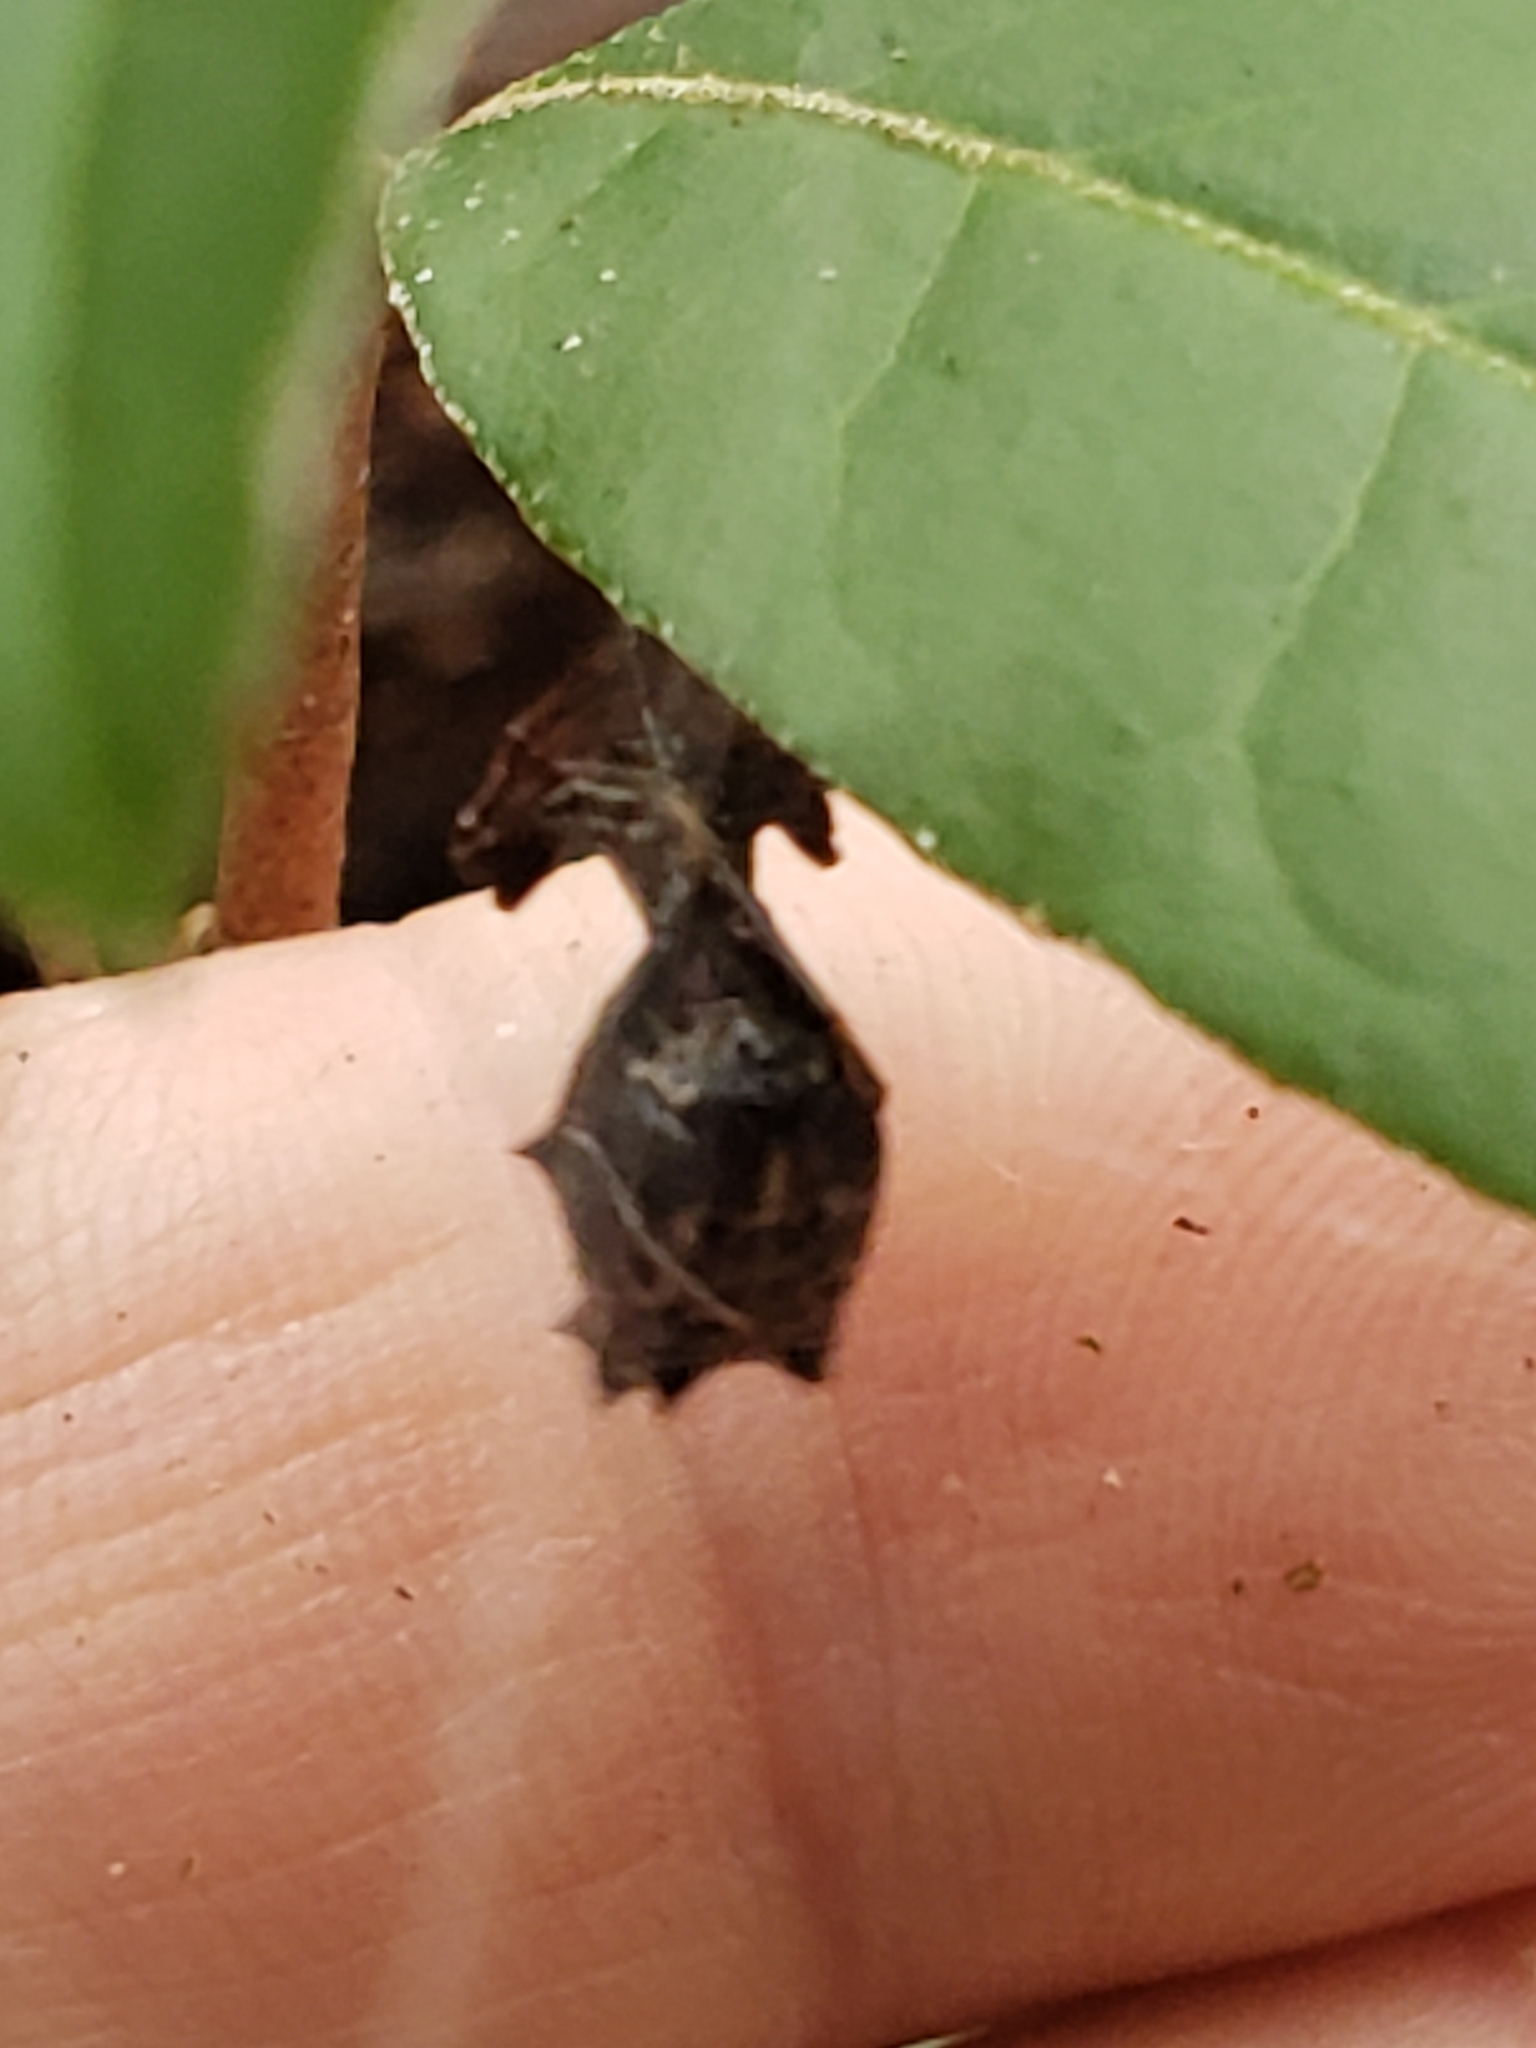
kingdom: Animalia
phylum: Arthropoda
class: Arachnida
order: Araneae
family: Araneidae
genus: Micrathena
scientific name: Micrathena gracilis
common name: Orb weavers
